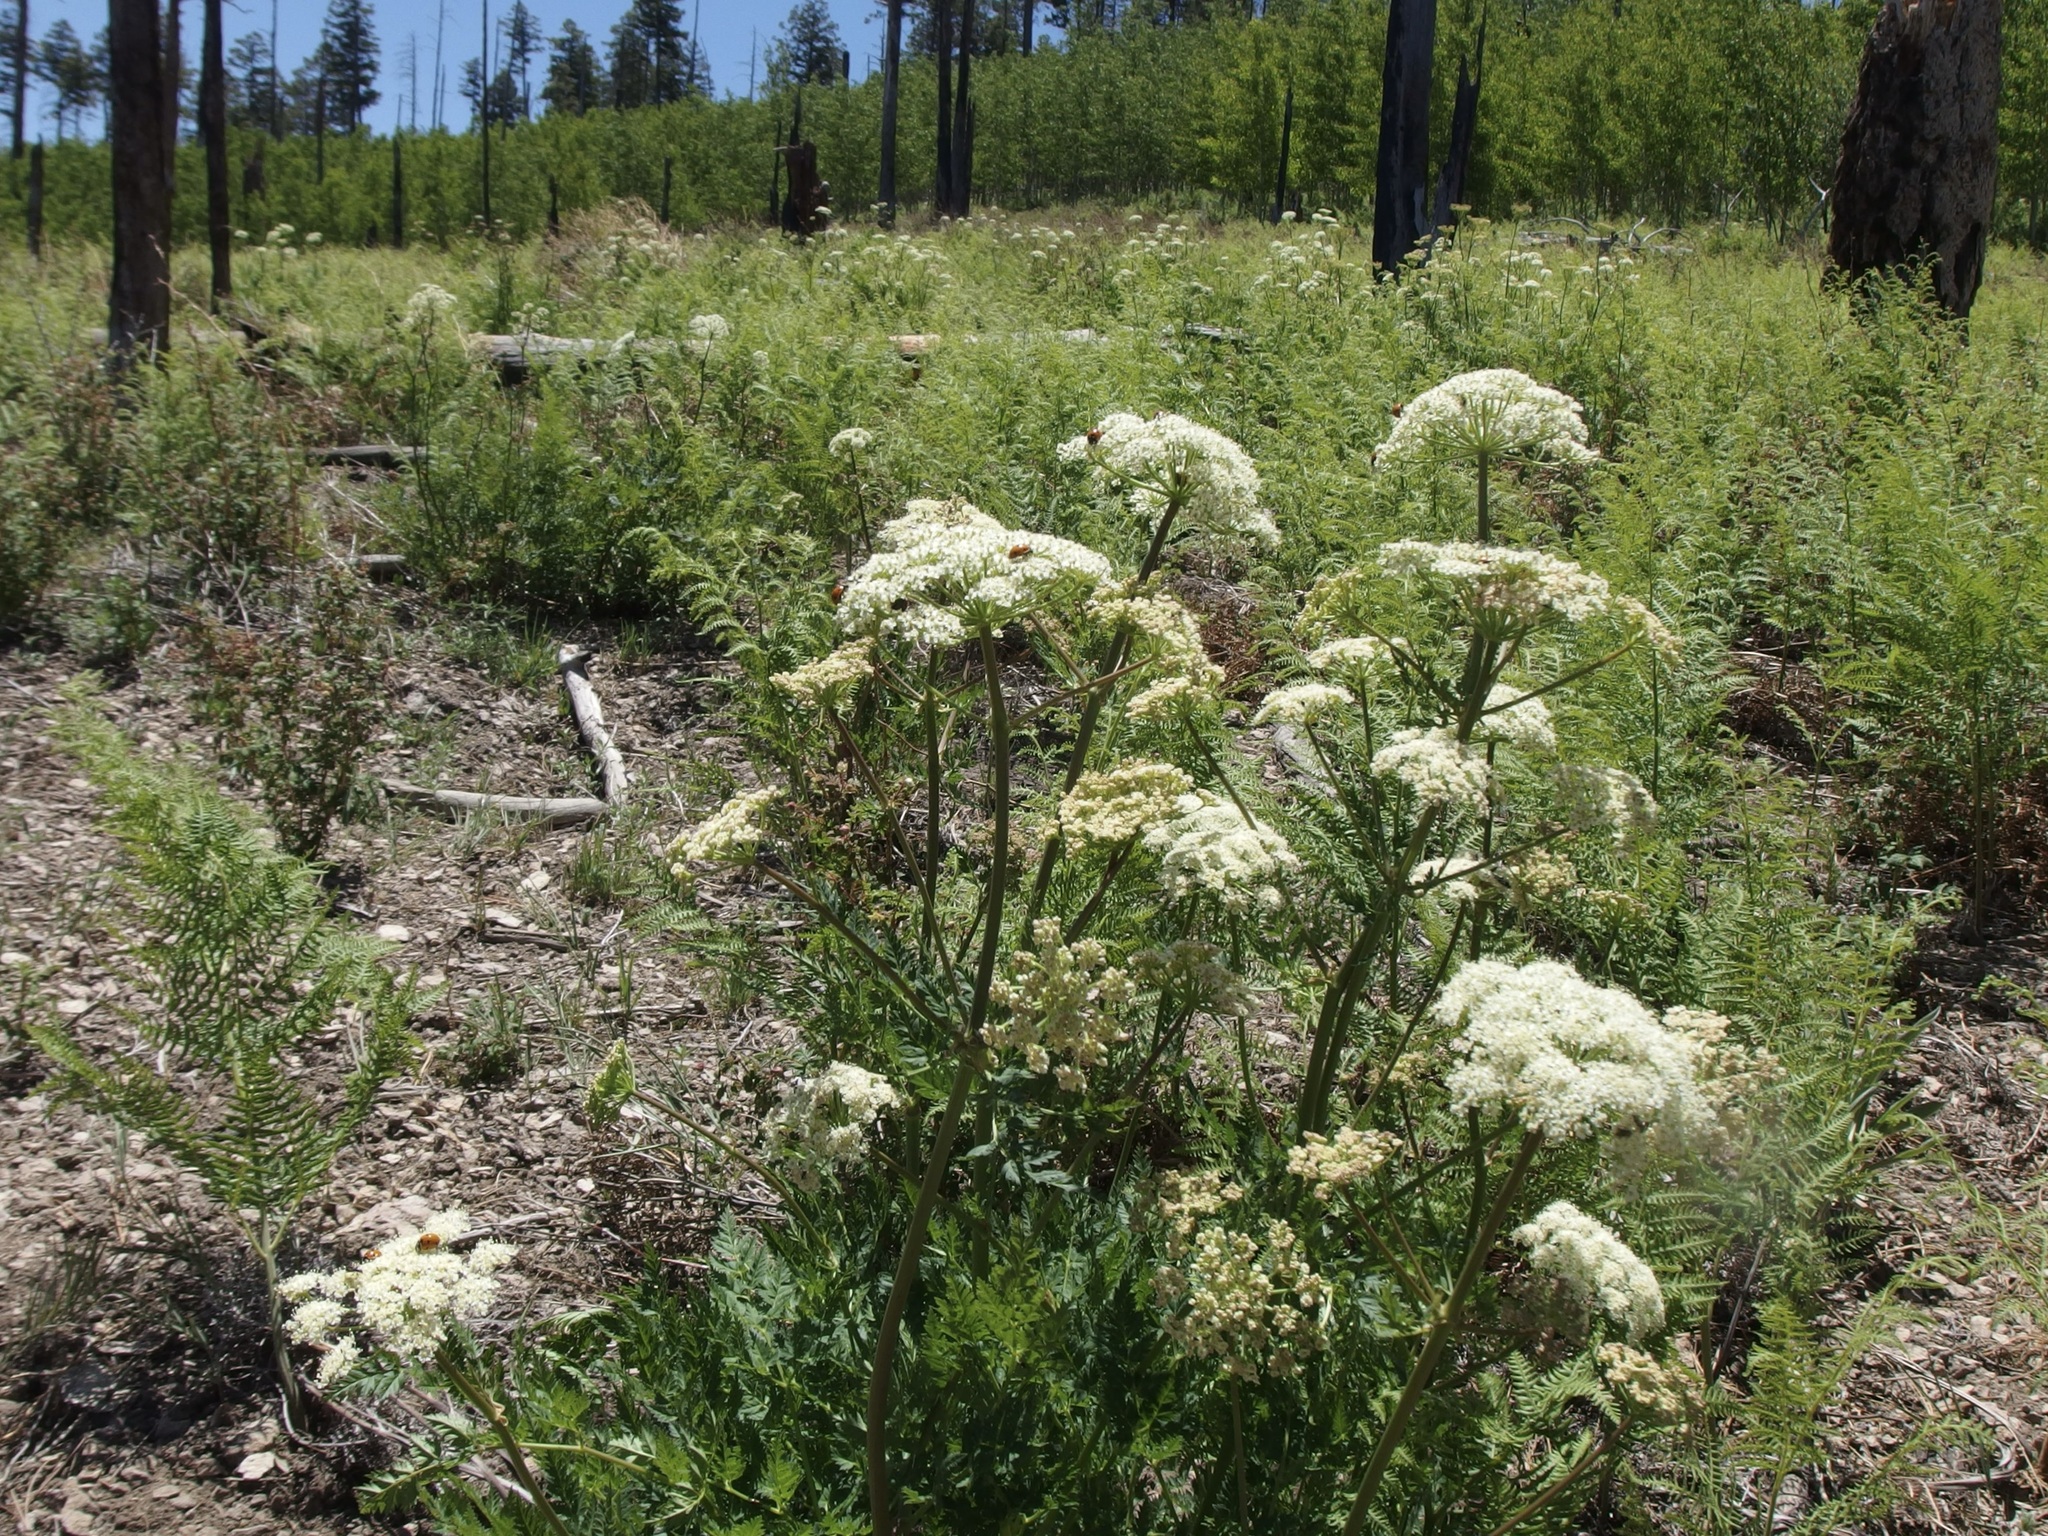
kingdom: Plantae
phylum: Tracheophyta
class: Magnoliopsida
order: Apiales
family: Apiaceae
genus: Ligusticum
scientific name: Ligusticum porteri
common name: Mountain lovage
